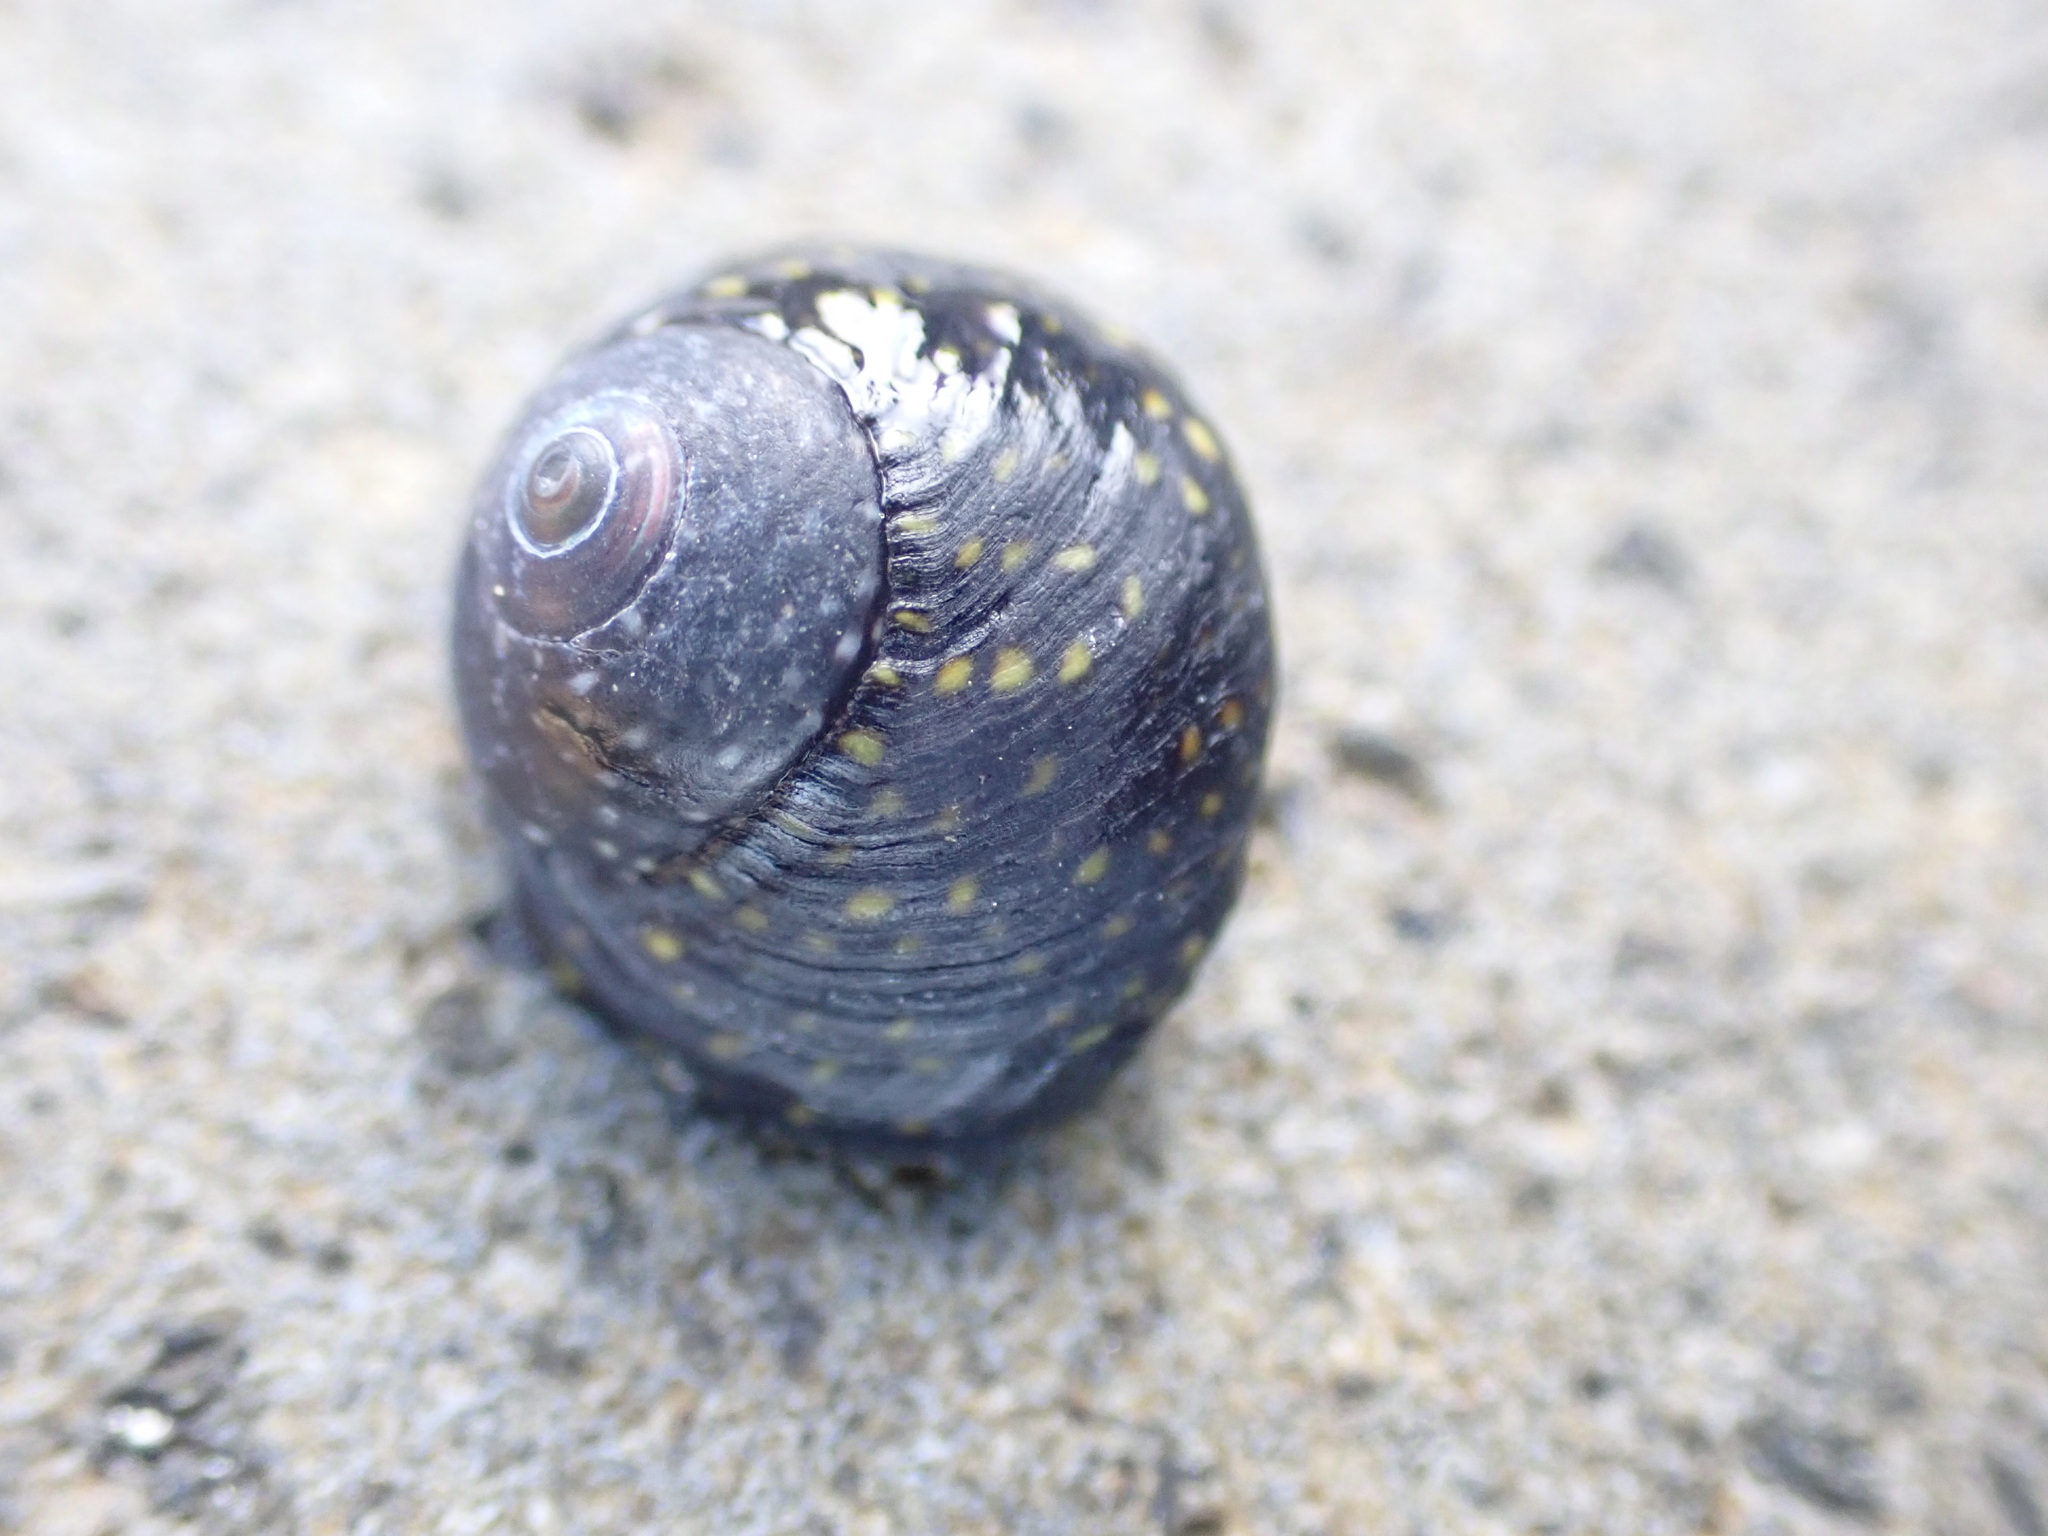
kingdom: Animalia
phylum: Mollusca
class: Gastropoda
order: Trochida
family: Trochidae
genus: Diloma
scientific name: Diloma aridum
